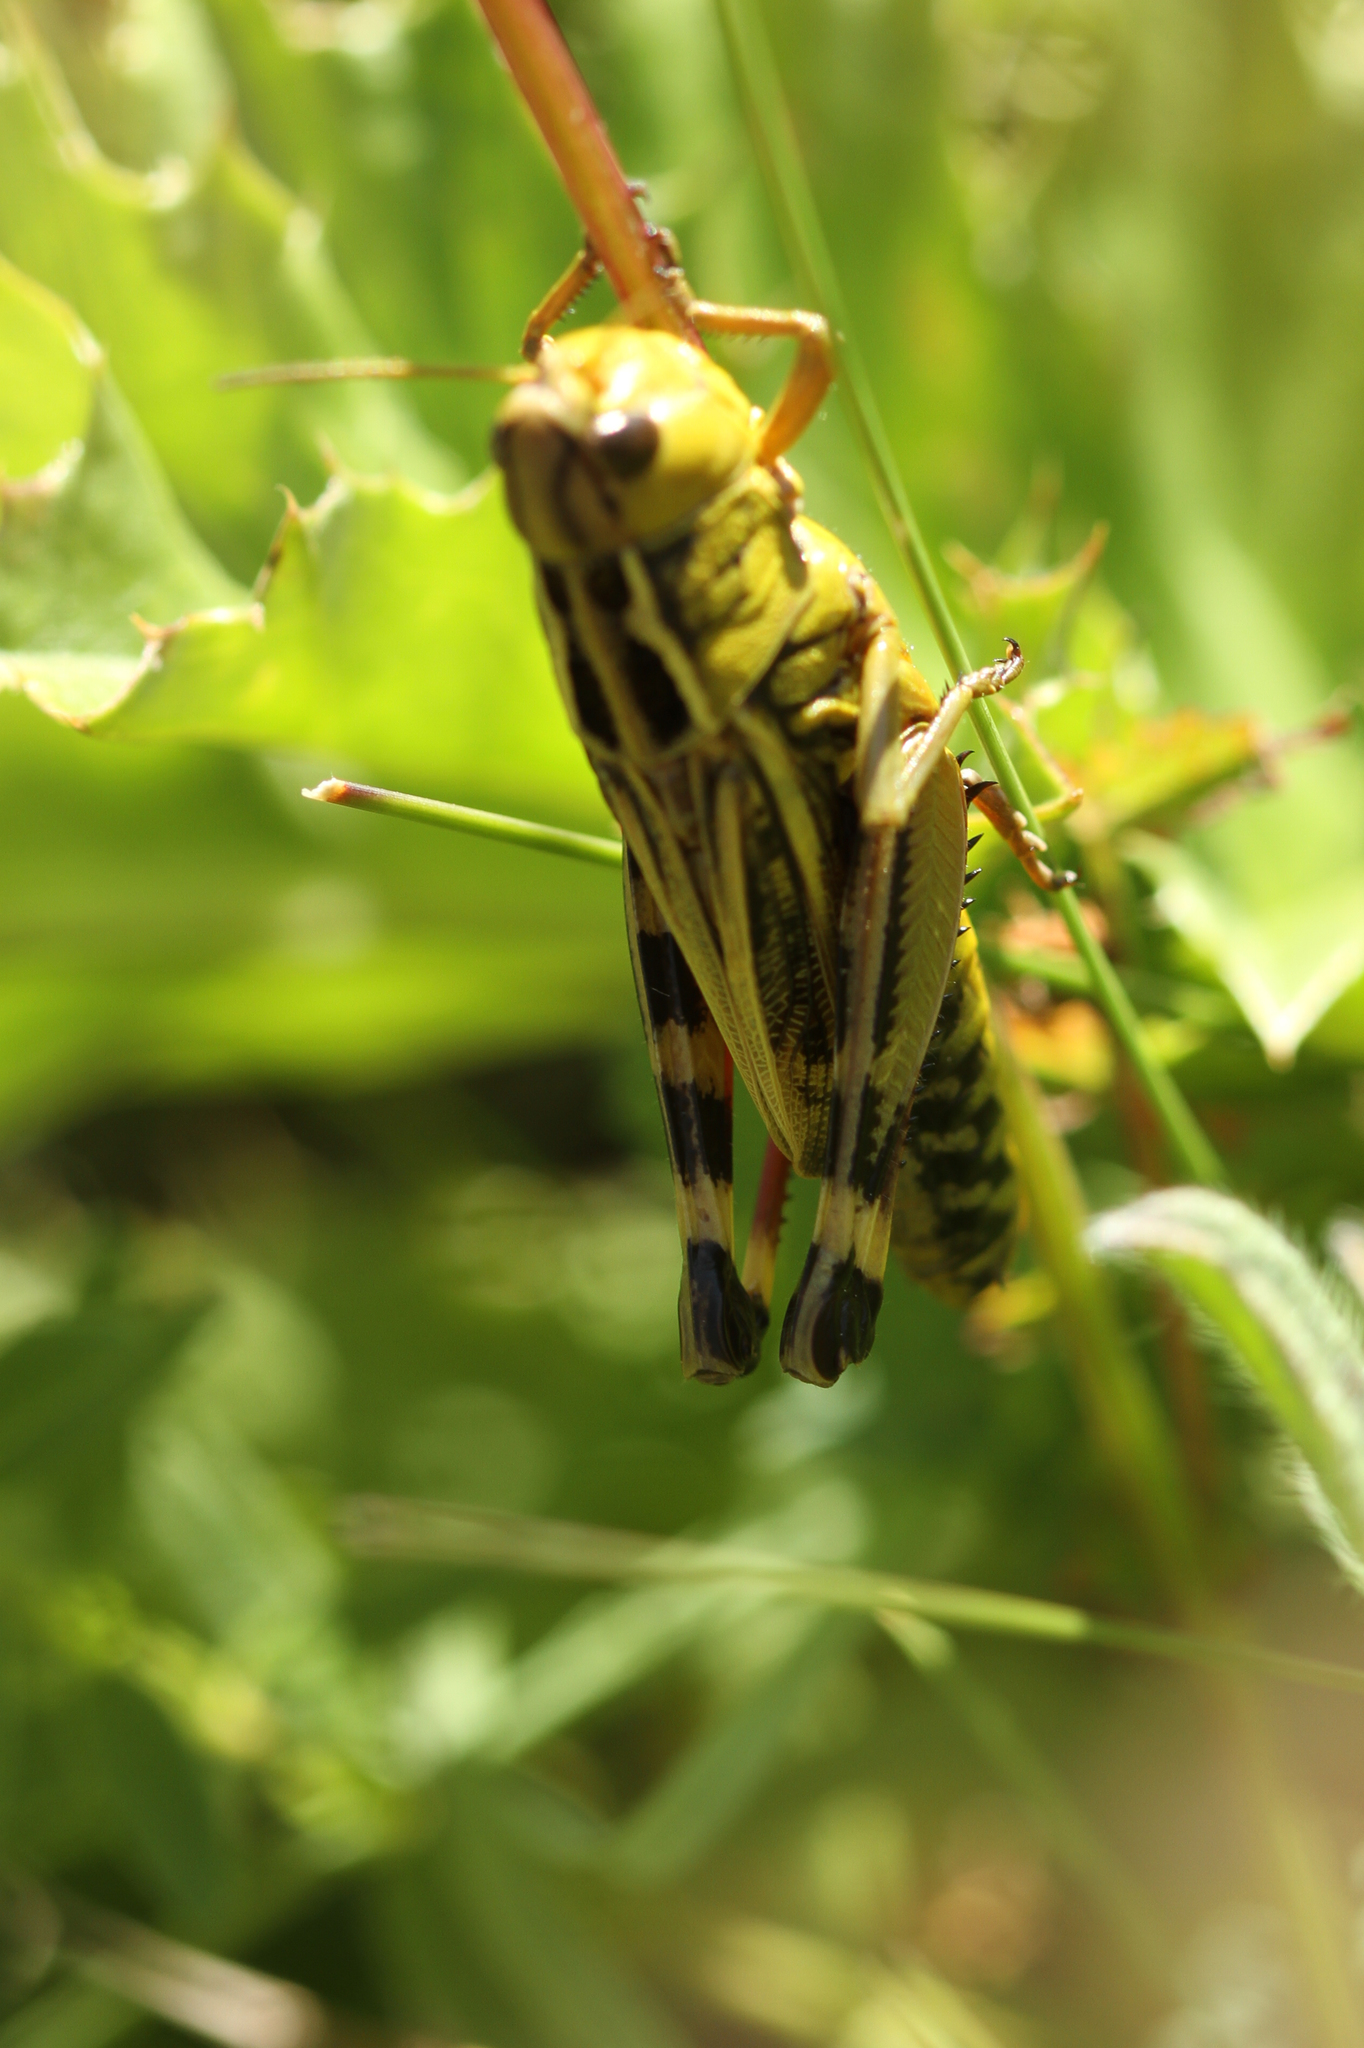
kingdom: Animalia
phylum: Arthropoda
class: Insecta
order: Orthoptera
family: Acrididae
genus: Arcyptera
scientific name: Arcyptera fusca
